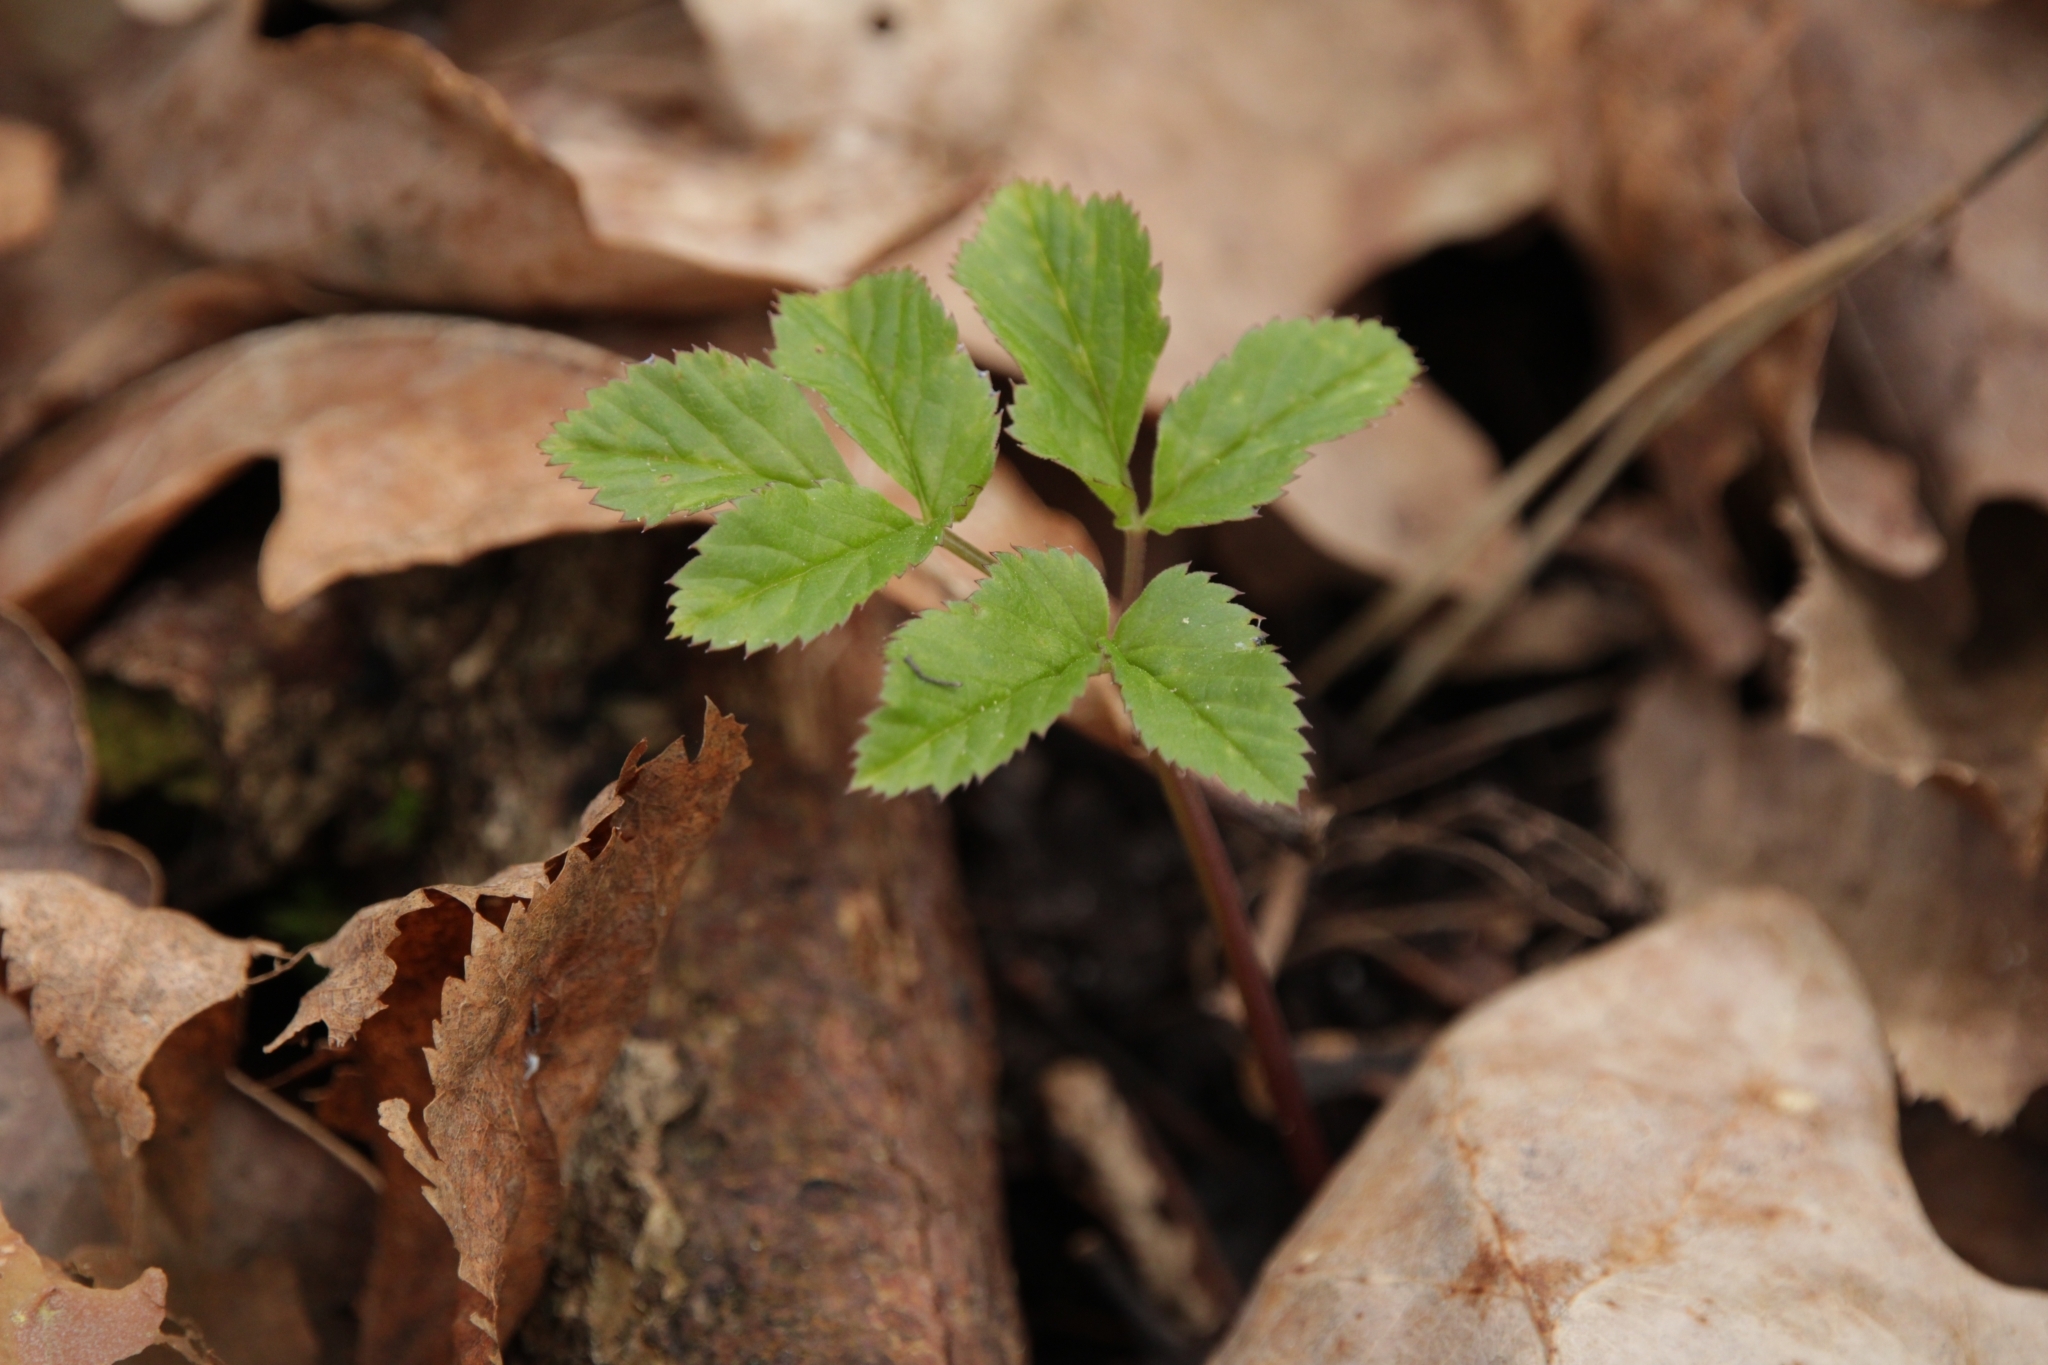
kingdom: Plantae
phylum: Tracheophyta
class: Magnoliopsida
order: Apiales
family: Apiaceae
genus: Aegopodium
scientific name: Aegopodium podagraria
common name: Ground-elder
